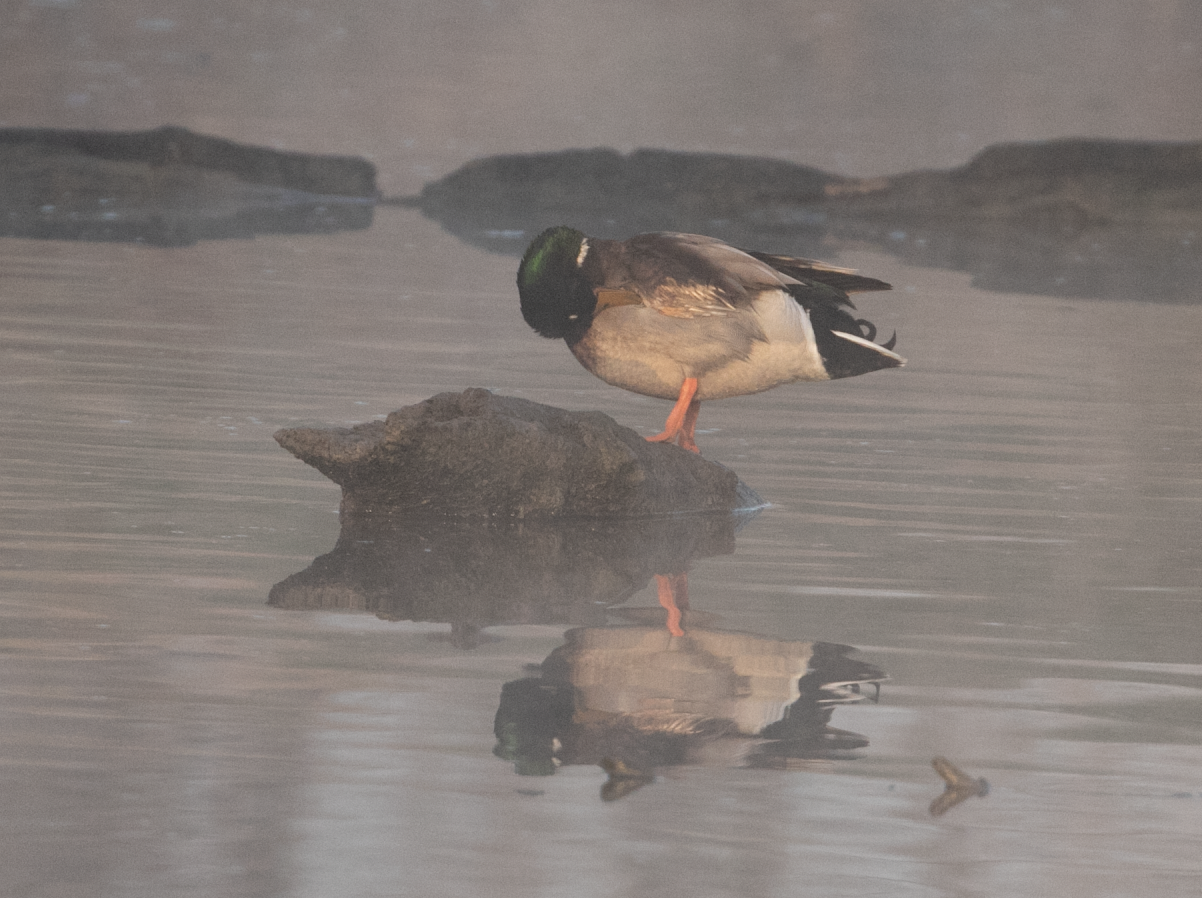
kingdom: Animalia
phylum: Chordata
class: Aves
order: Anseriformes
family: Anatidae
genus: Anas
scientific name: Anas platyrhynchos
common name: Mallard
